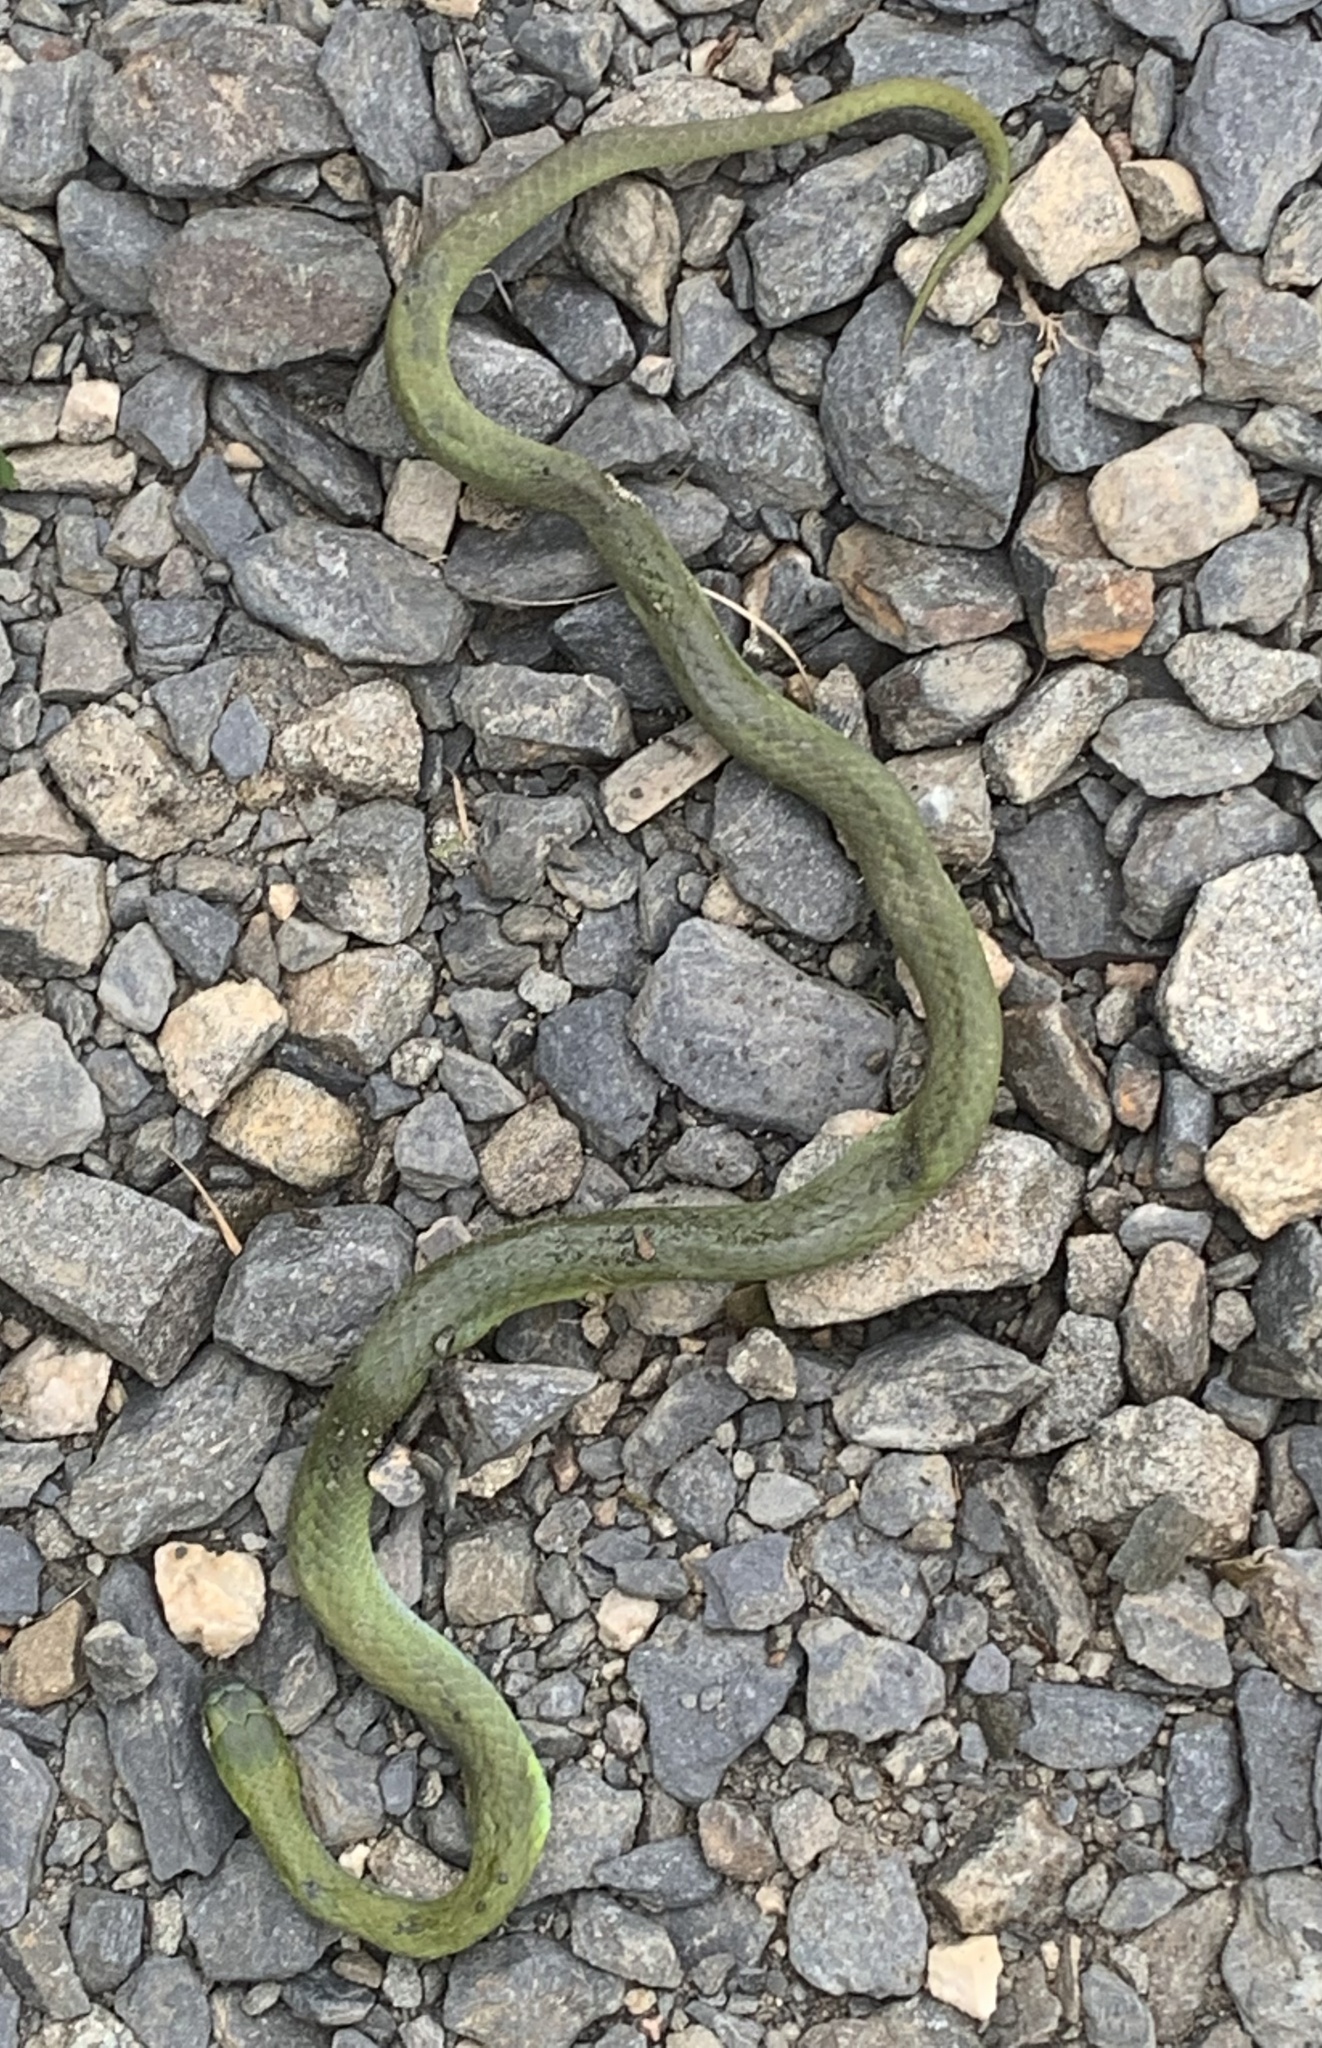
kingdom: Animalia
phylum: Chordata
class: Squamata
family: Colubridae
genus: Opheodrys
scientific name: Opheodrys vernalis
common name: Smooth green snake
